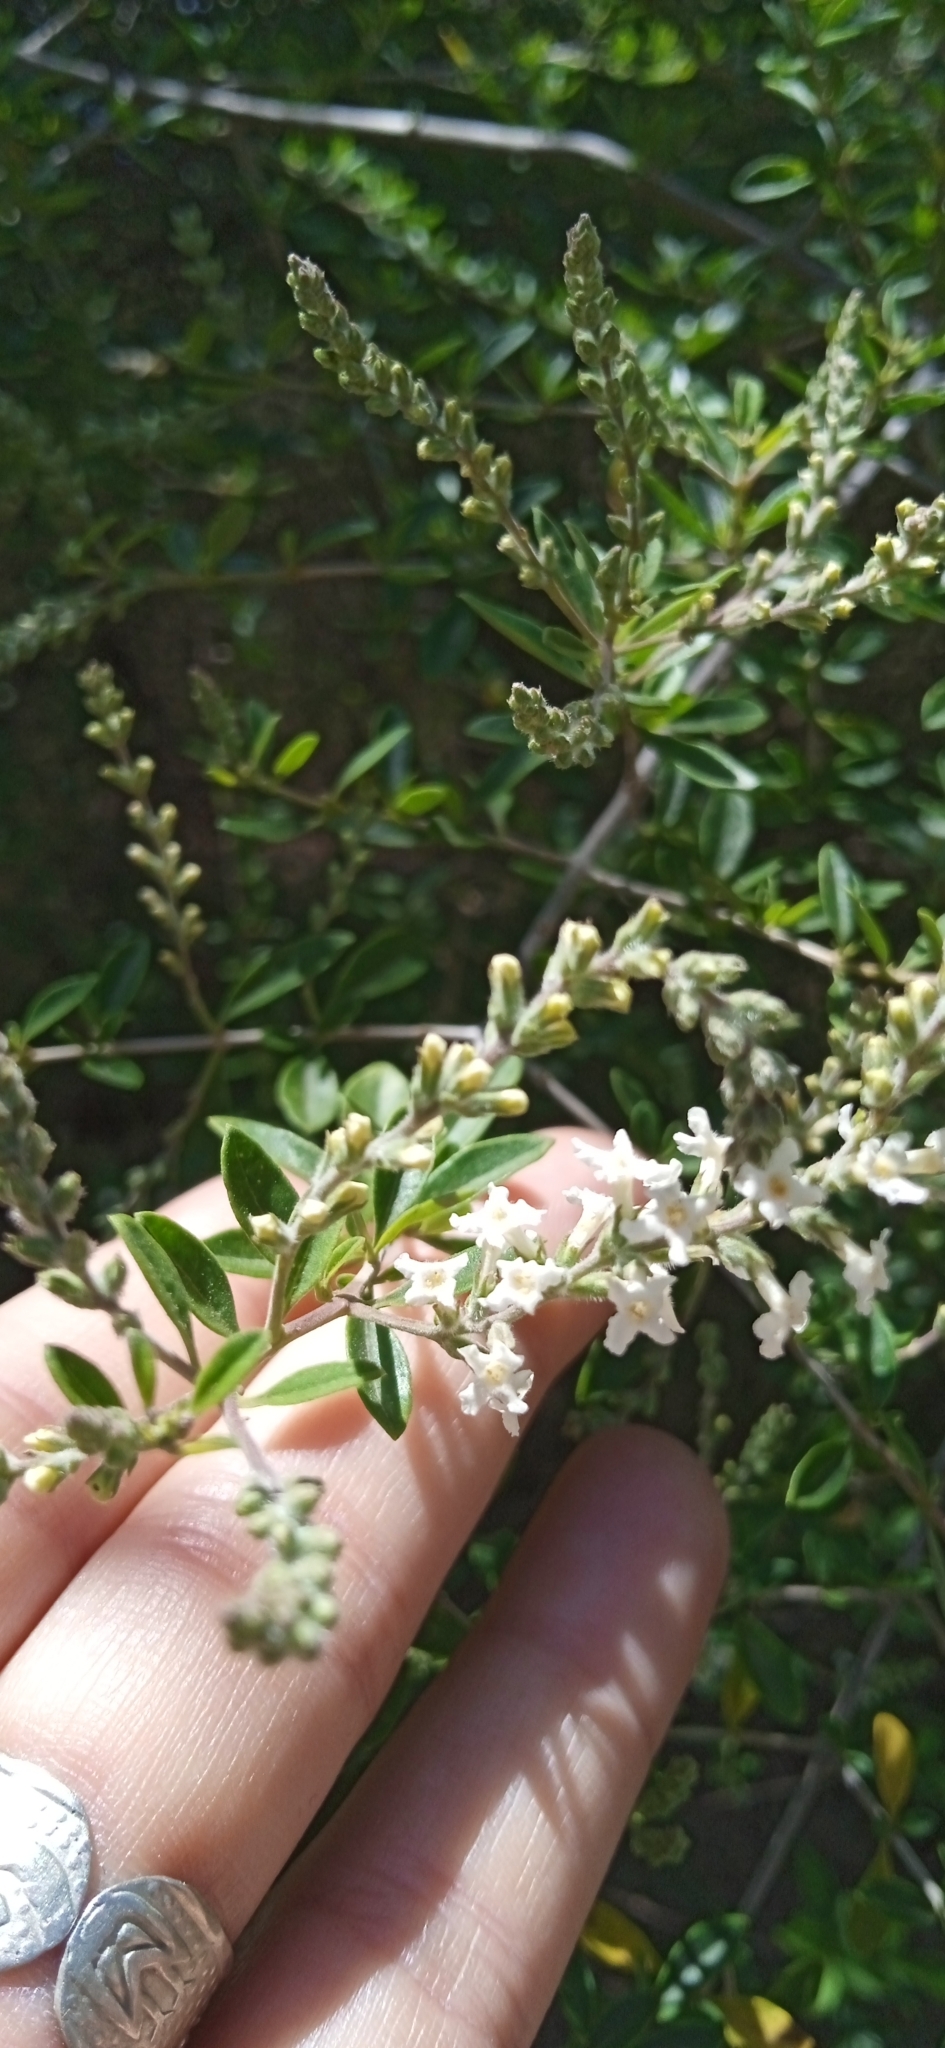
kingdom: Plantae
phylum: Tracheophyta
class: Magnoliopsida
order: Lamiales
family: Verbenaceae
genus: Aloysia
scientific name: Aloysia gratissima
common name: Common bee-brush
